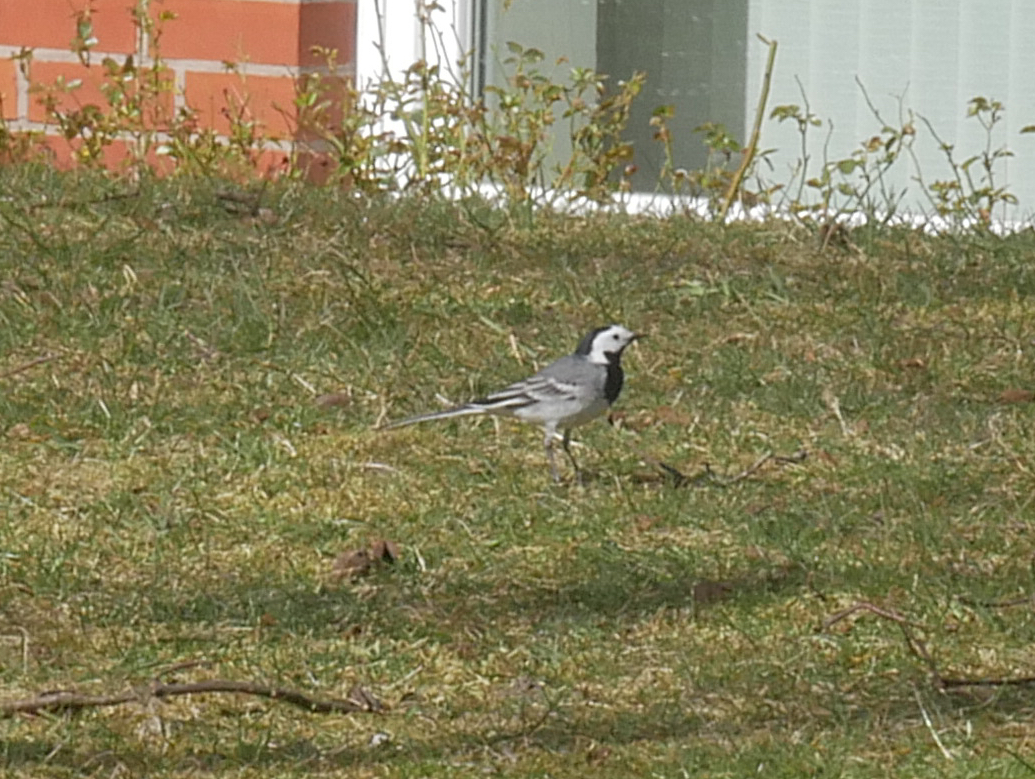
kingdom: Animalia
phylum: Chordata
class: Aves
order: Passeriformes
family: Motacillidae
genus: Motacilla
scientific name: Motacilla alba
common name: White wagtail
